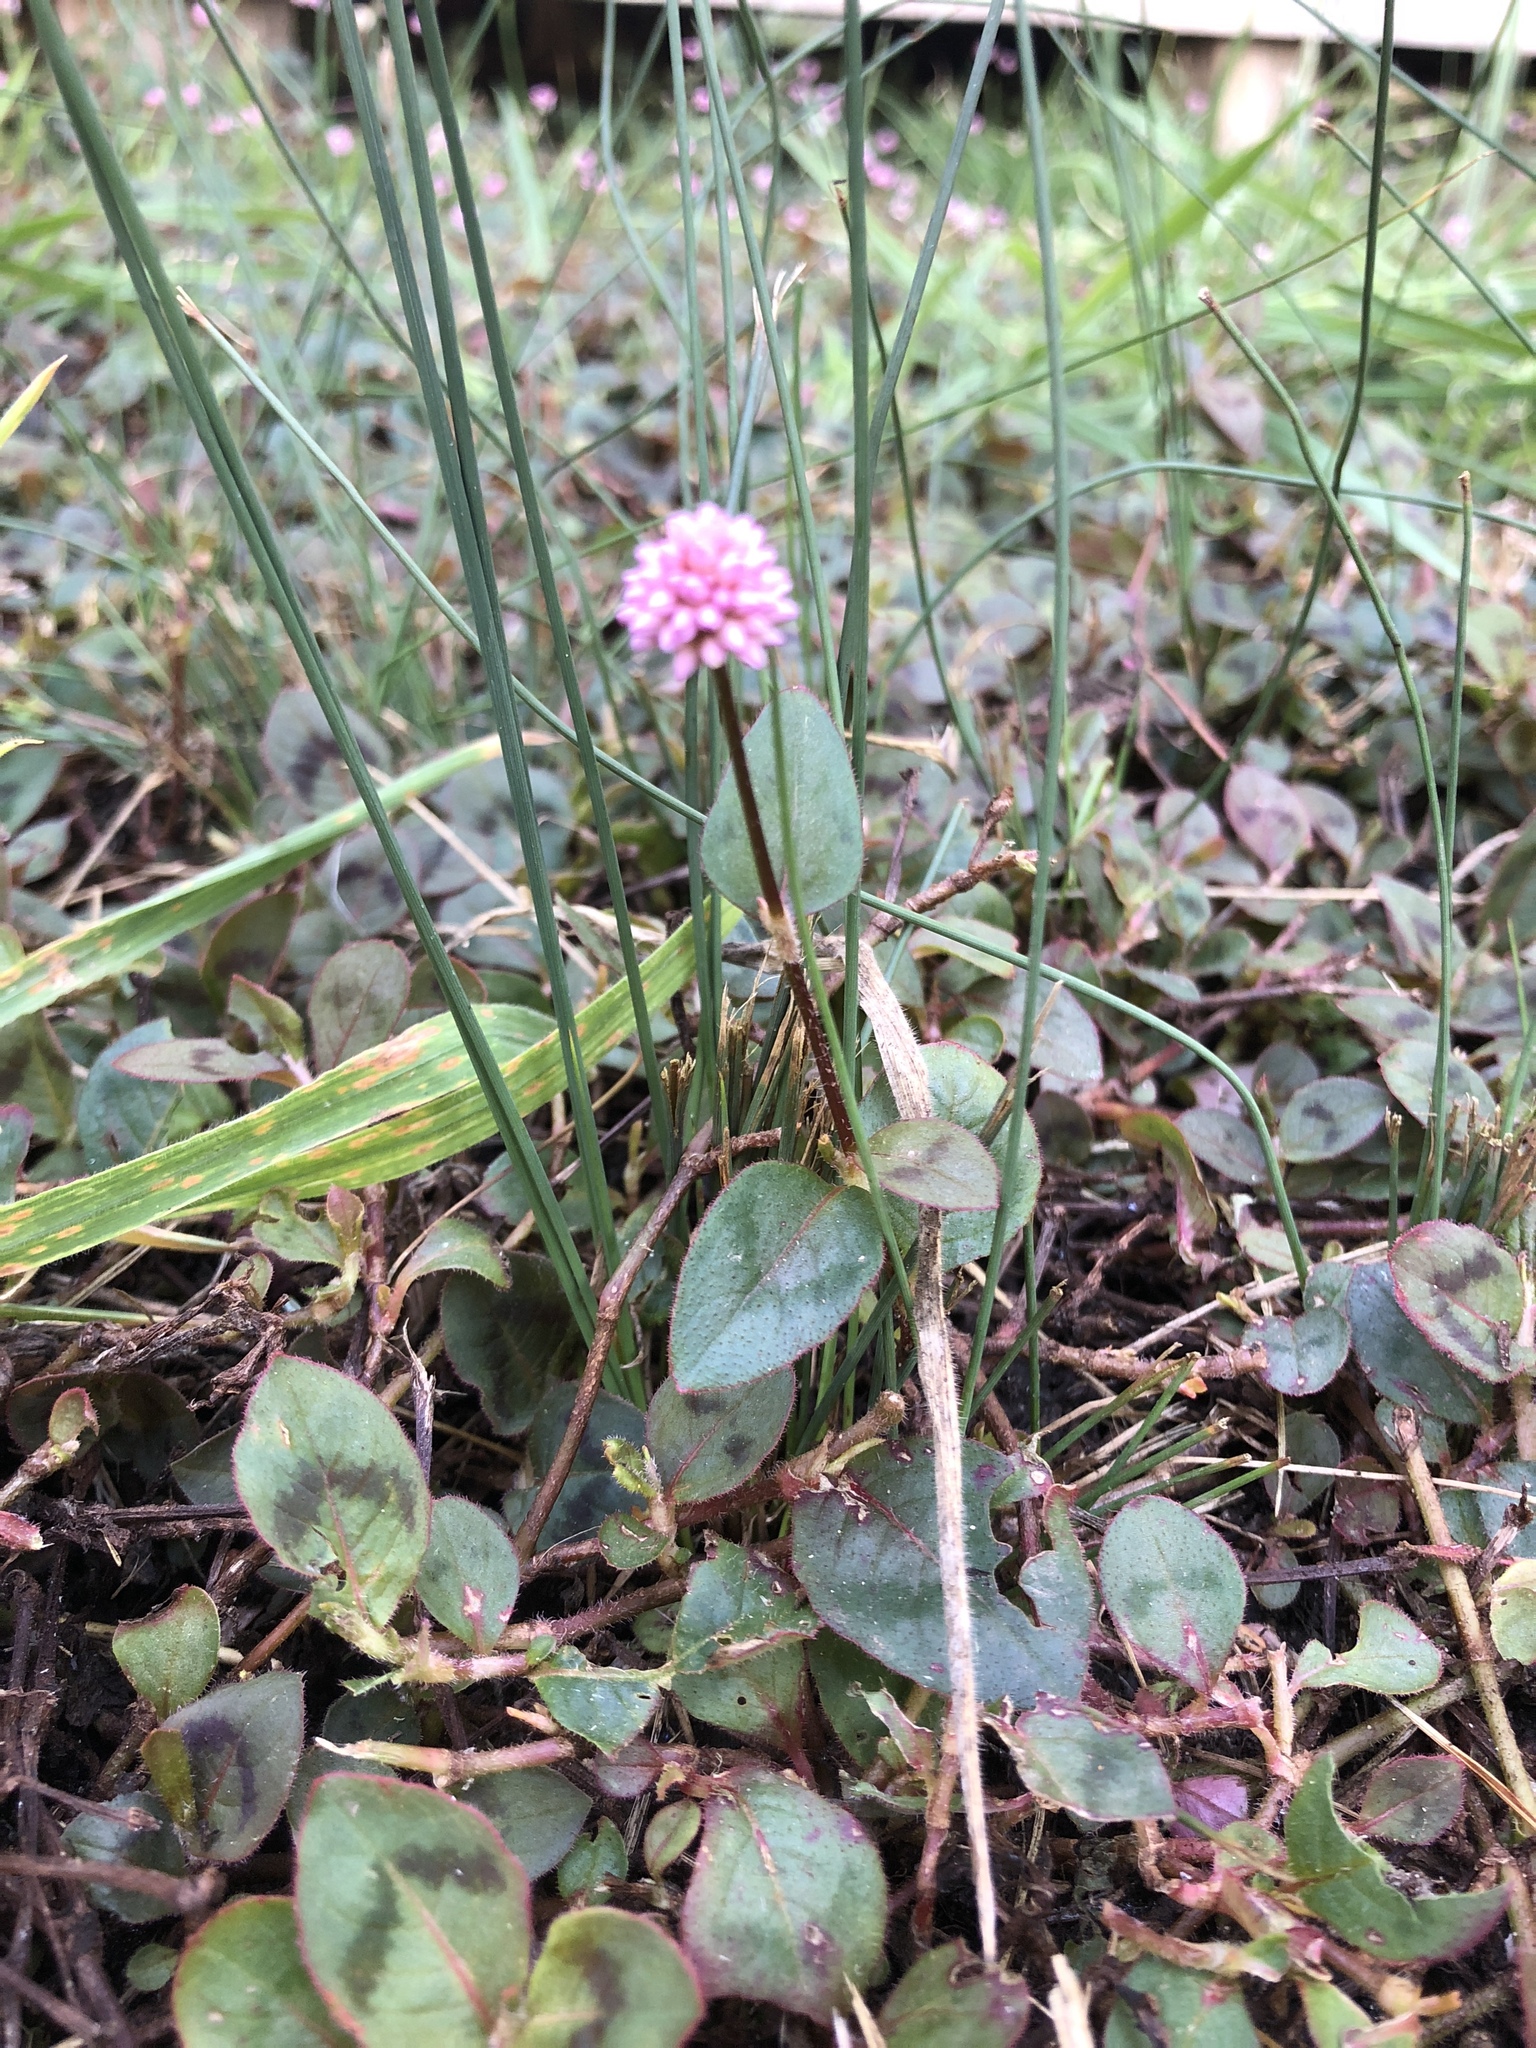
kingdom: Plantae
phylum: Tracheophyta
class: Magnoliopsida
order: Caryophyllales
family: Polygonaceae
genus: Persicaria
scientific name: Persicaria capitata
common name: Pinkhead smartweed
